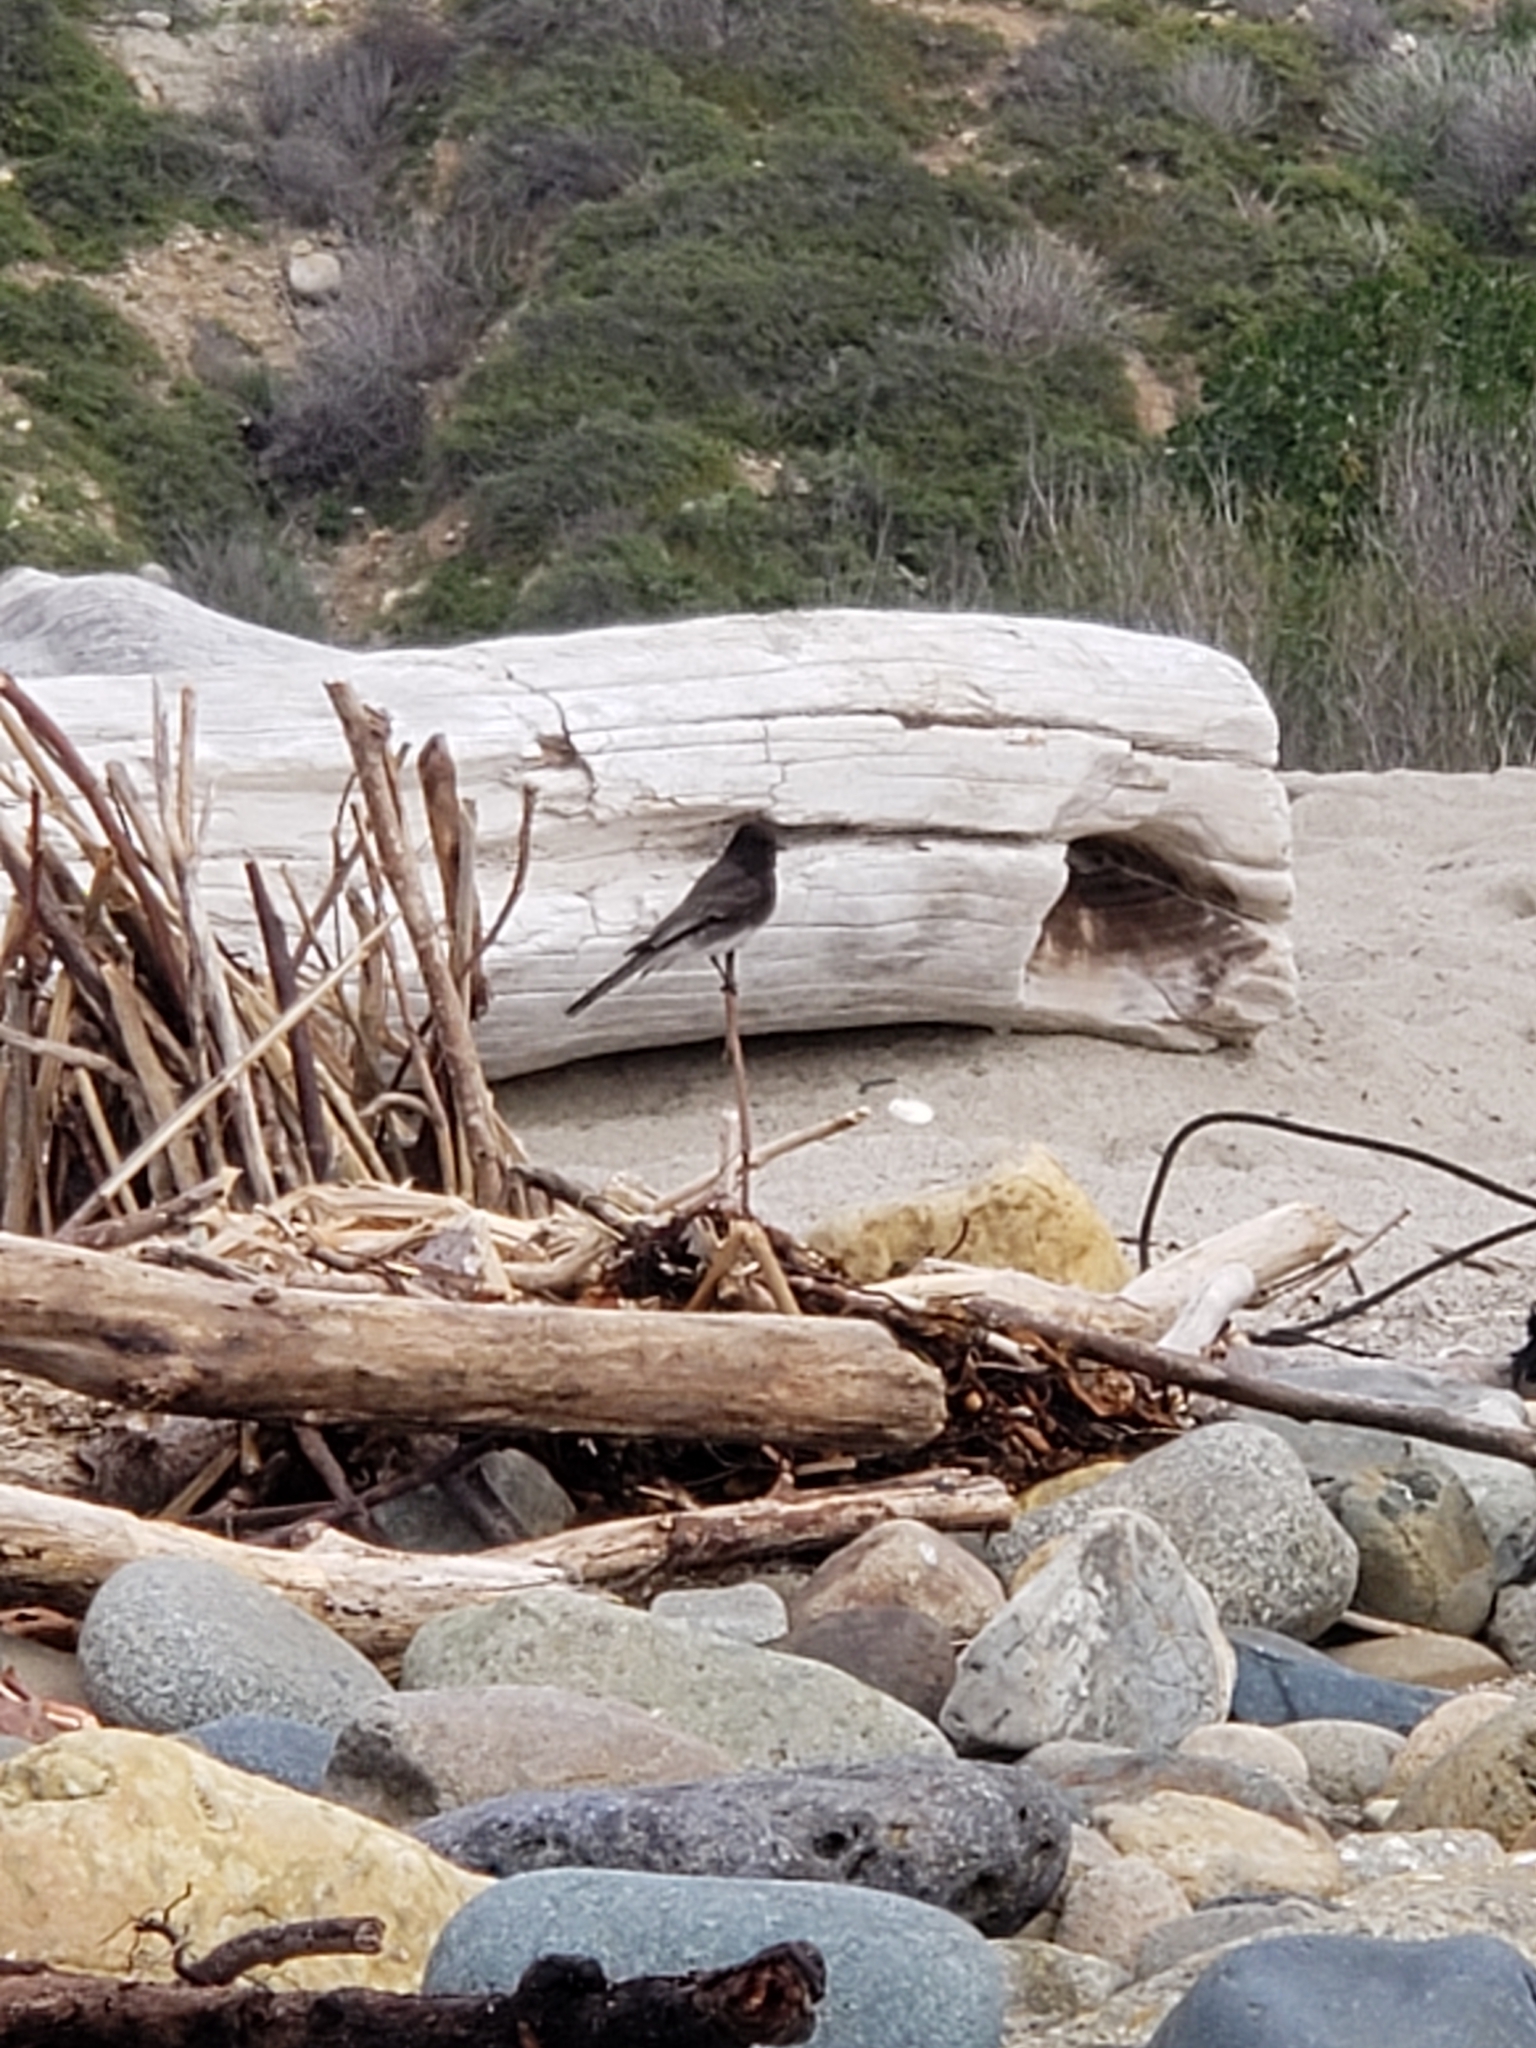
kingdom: Animalia
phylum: Chordata
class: Aves
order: Passeriformes
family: Tyrannidae
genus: Sayornis
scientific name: Sayornis nigricans
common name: Black phoebe
